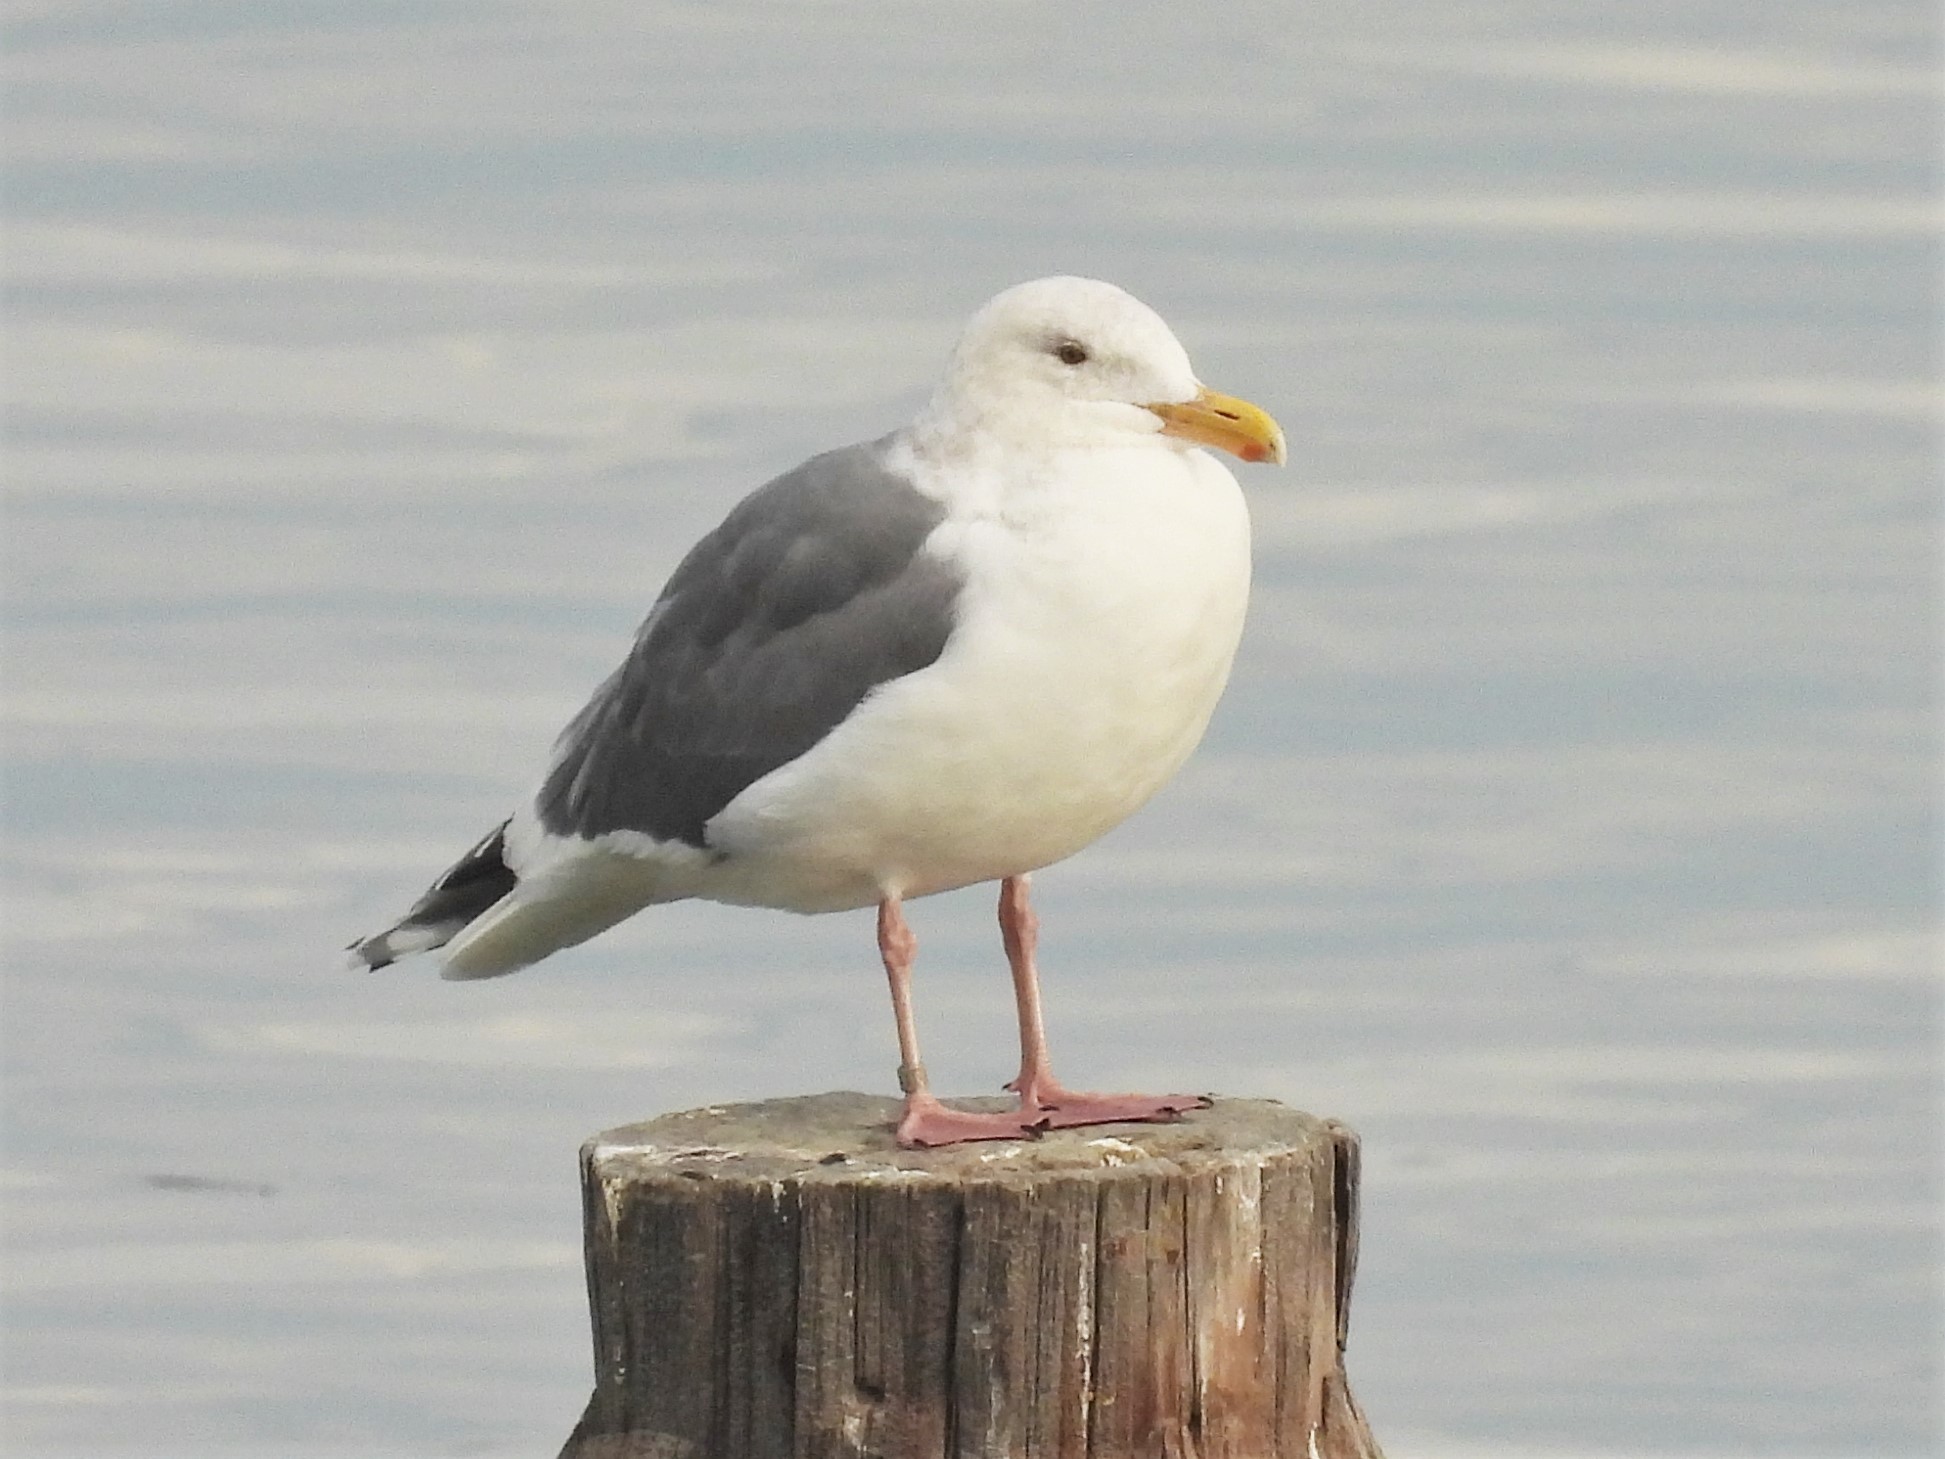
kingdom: Animalia
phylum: Chordata
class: Aves
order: Charadriiformes
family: Laridae
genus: Larus
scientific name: Larus occidentalis
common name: Western gull
